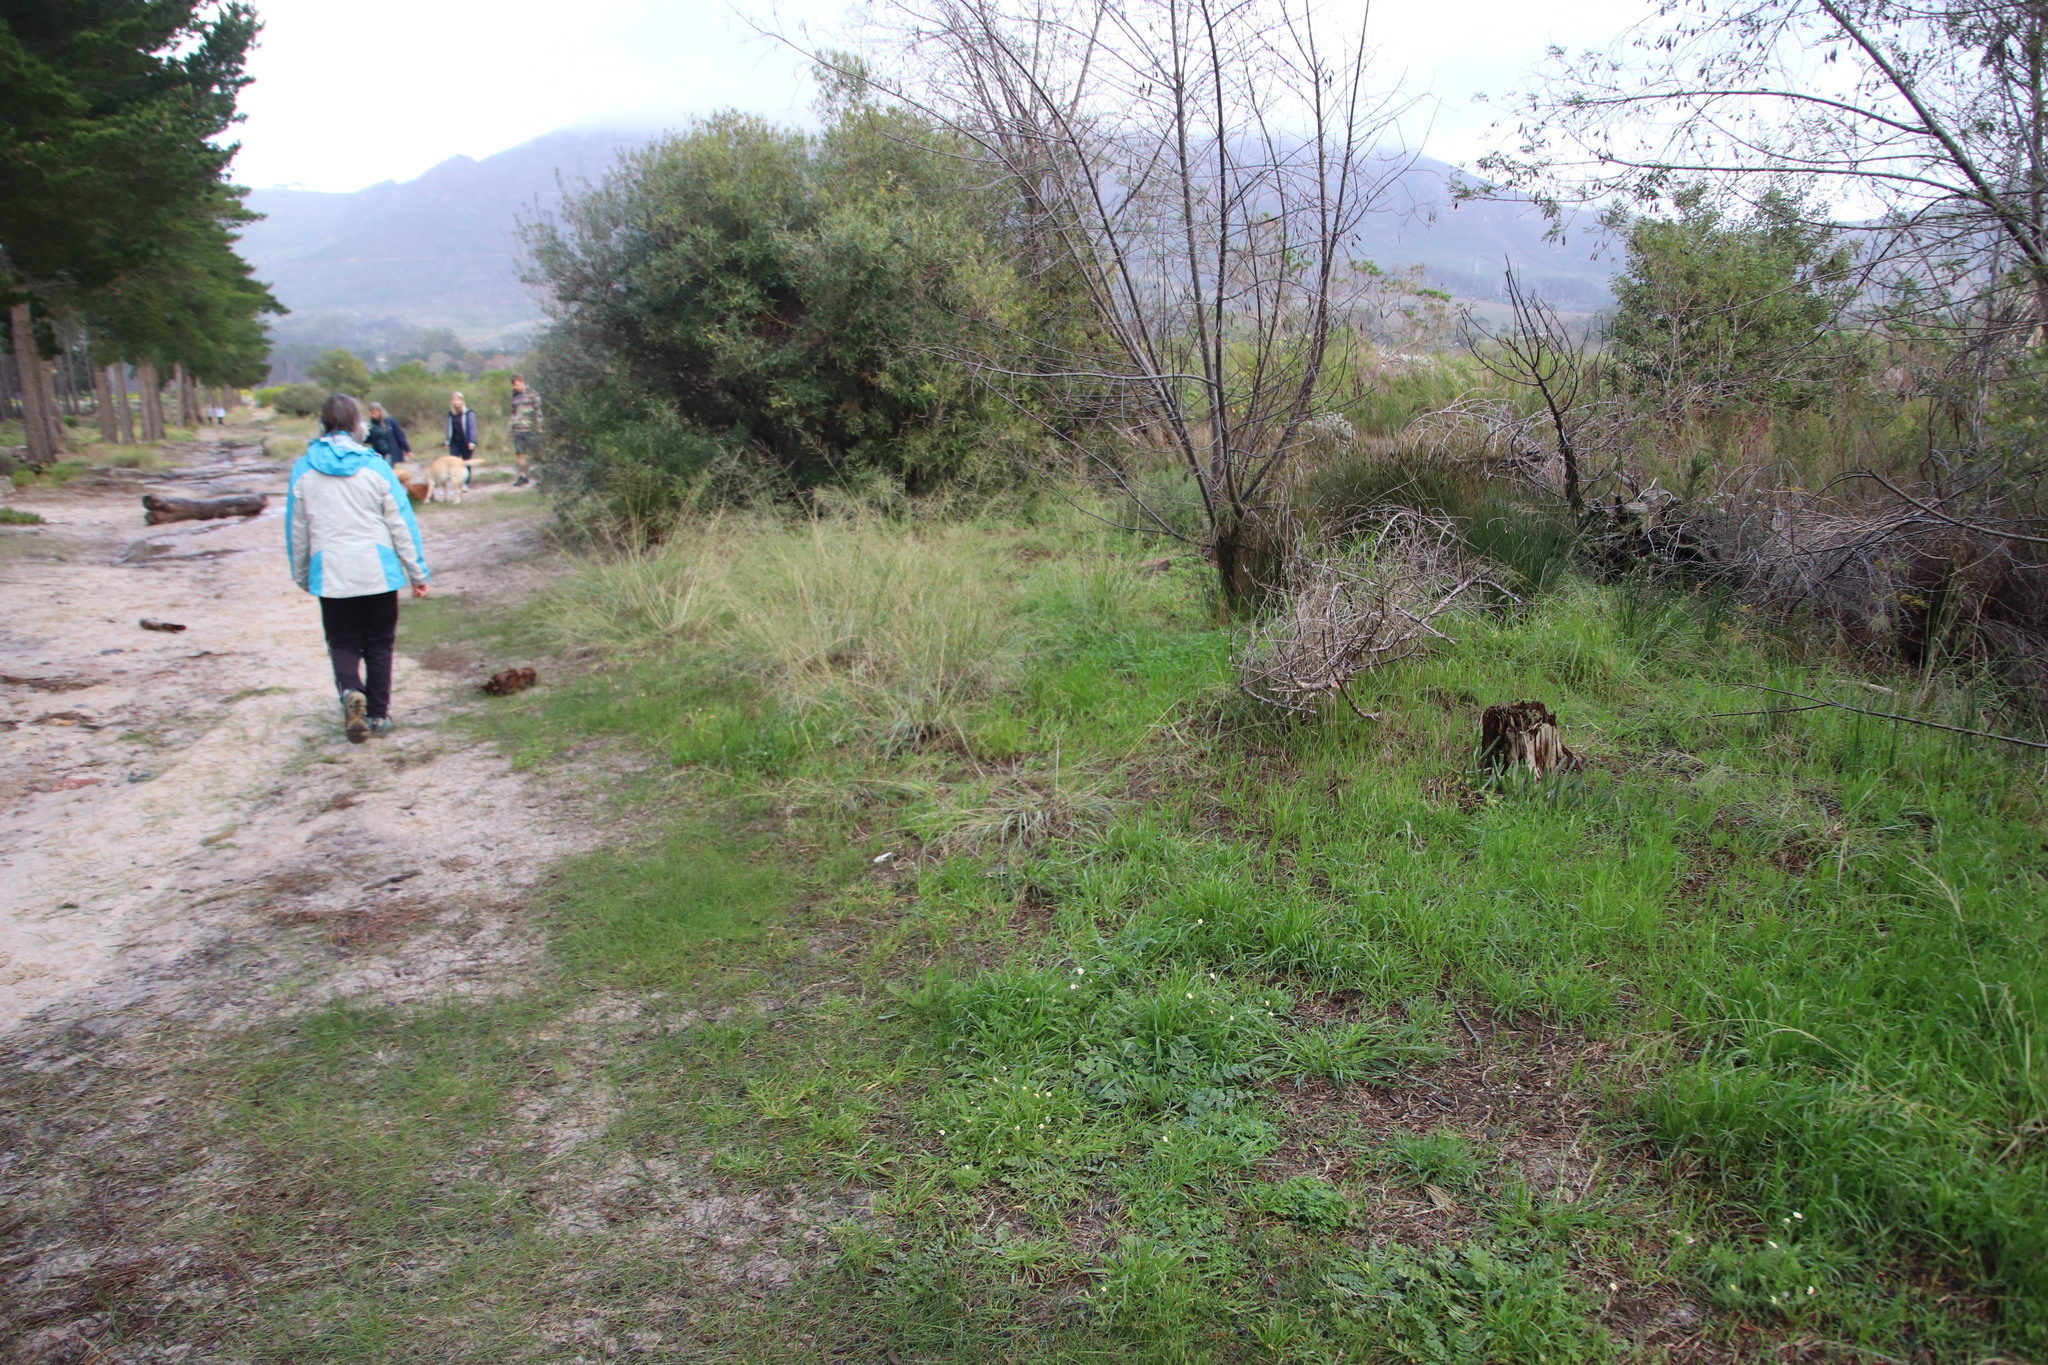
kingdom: Plantae
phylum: Tracheophyta
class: Magnoliopsida
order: Asterales
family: Asteraceae
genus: Cotula
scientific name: Cotula turbinata
